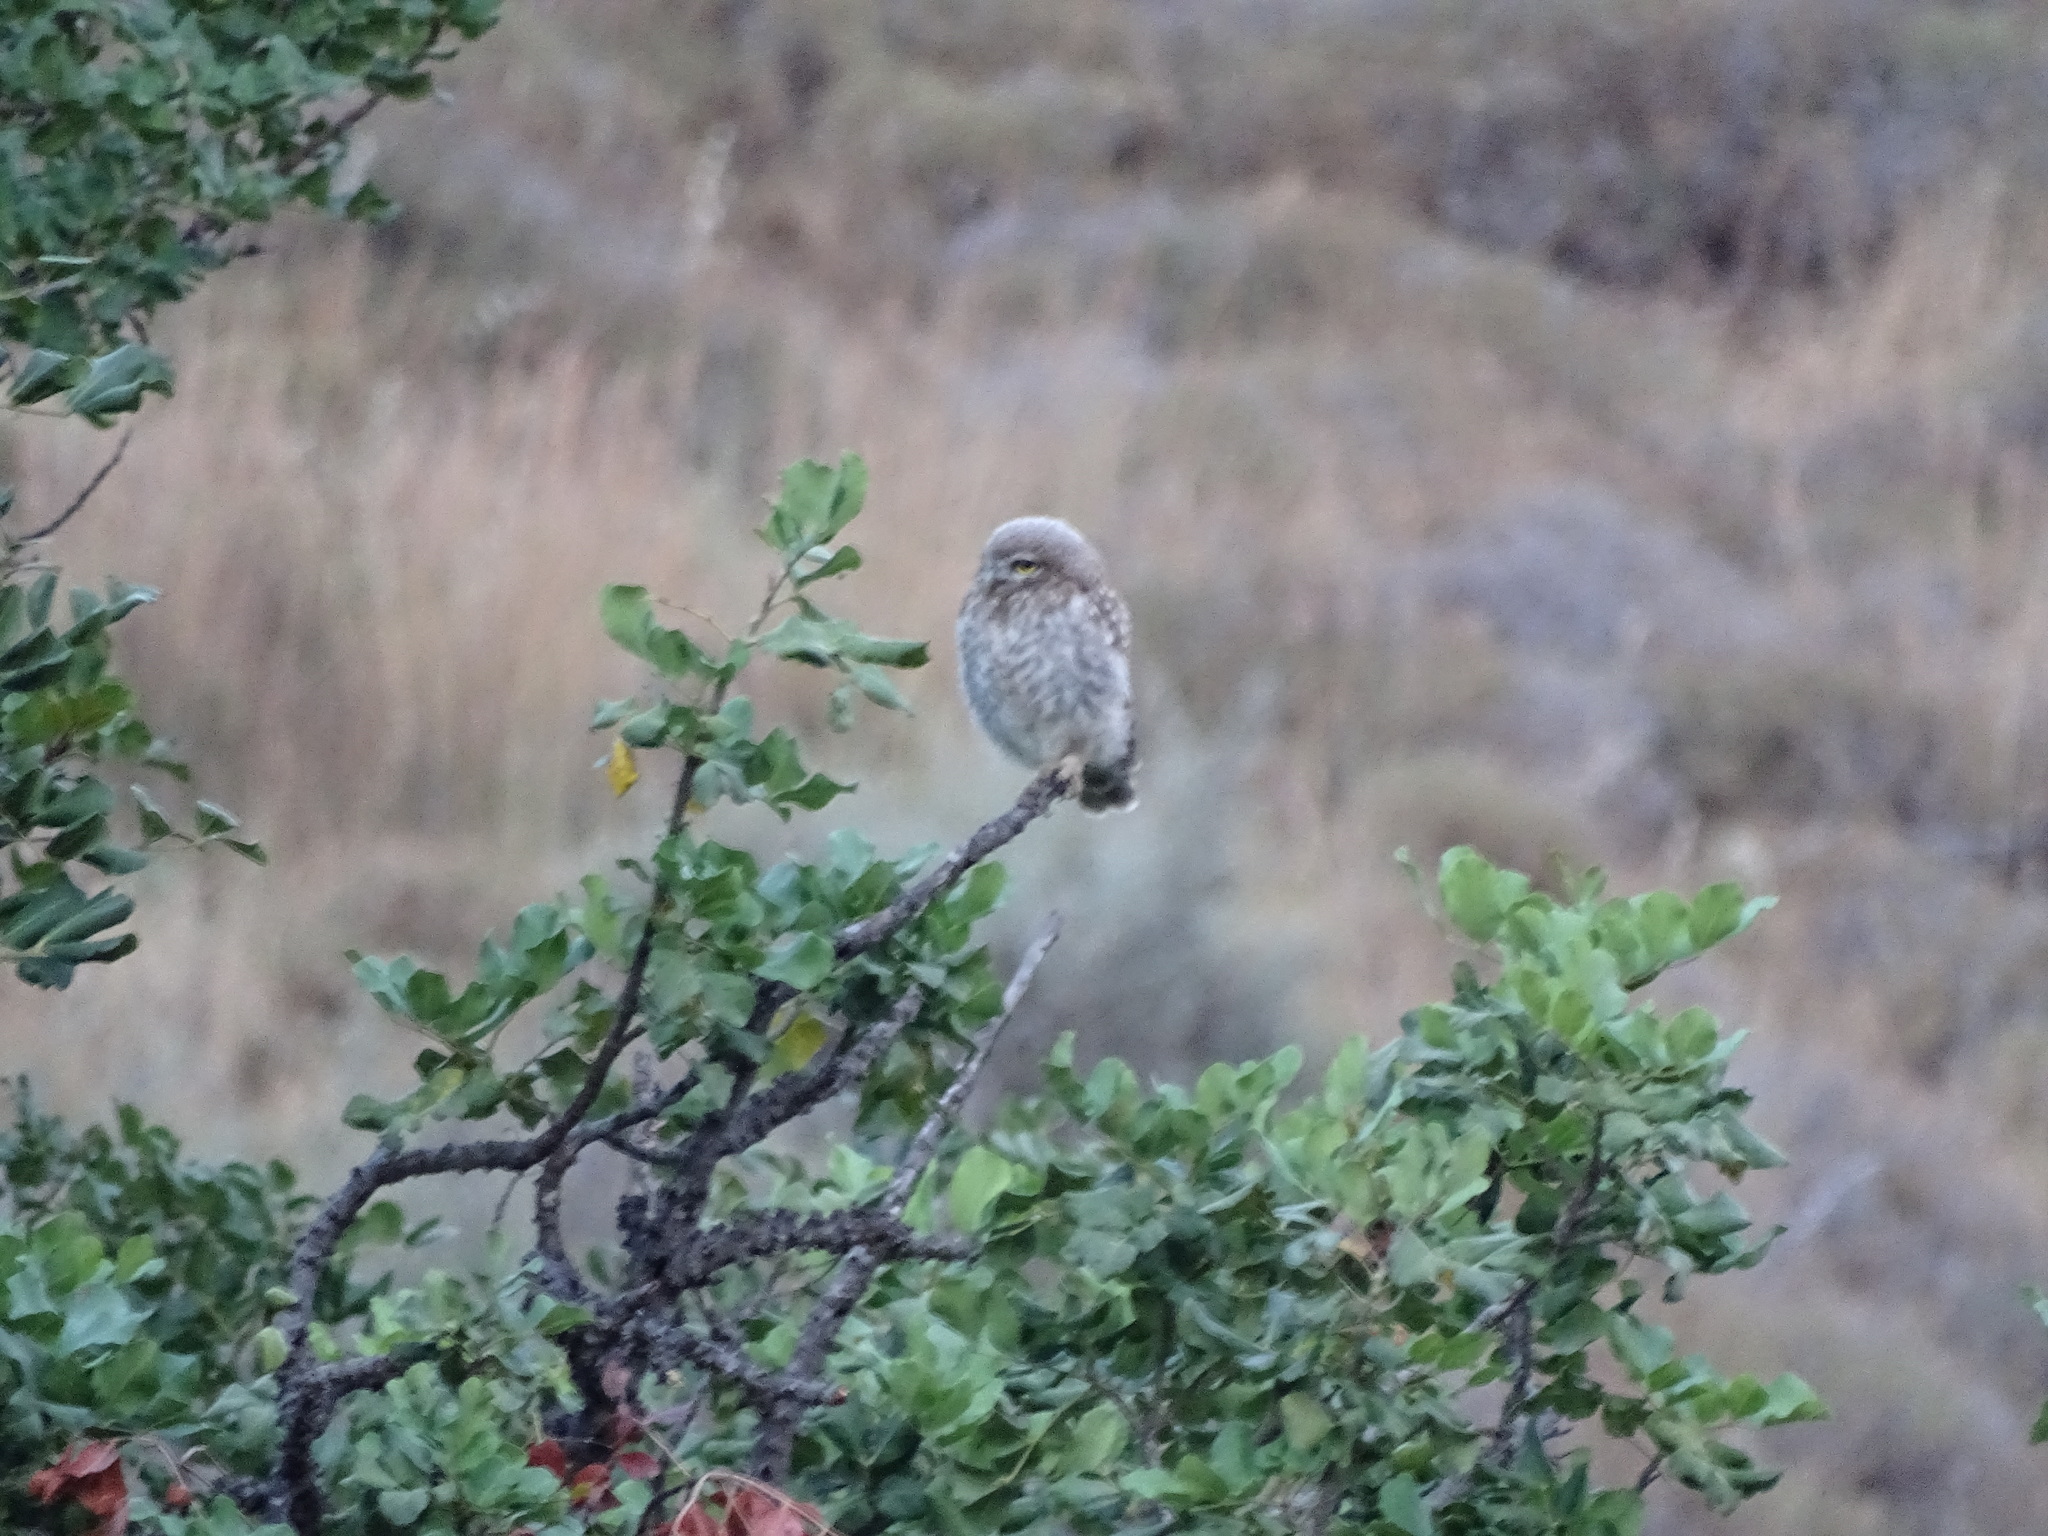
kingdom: Animalia
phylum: Chordata
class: Aves
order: Strigiformes
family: Strigidae
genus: Athene
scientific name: Athene noctua
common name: Little owl
